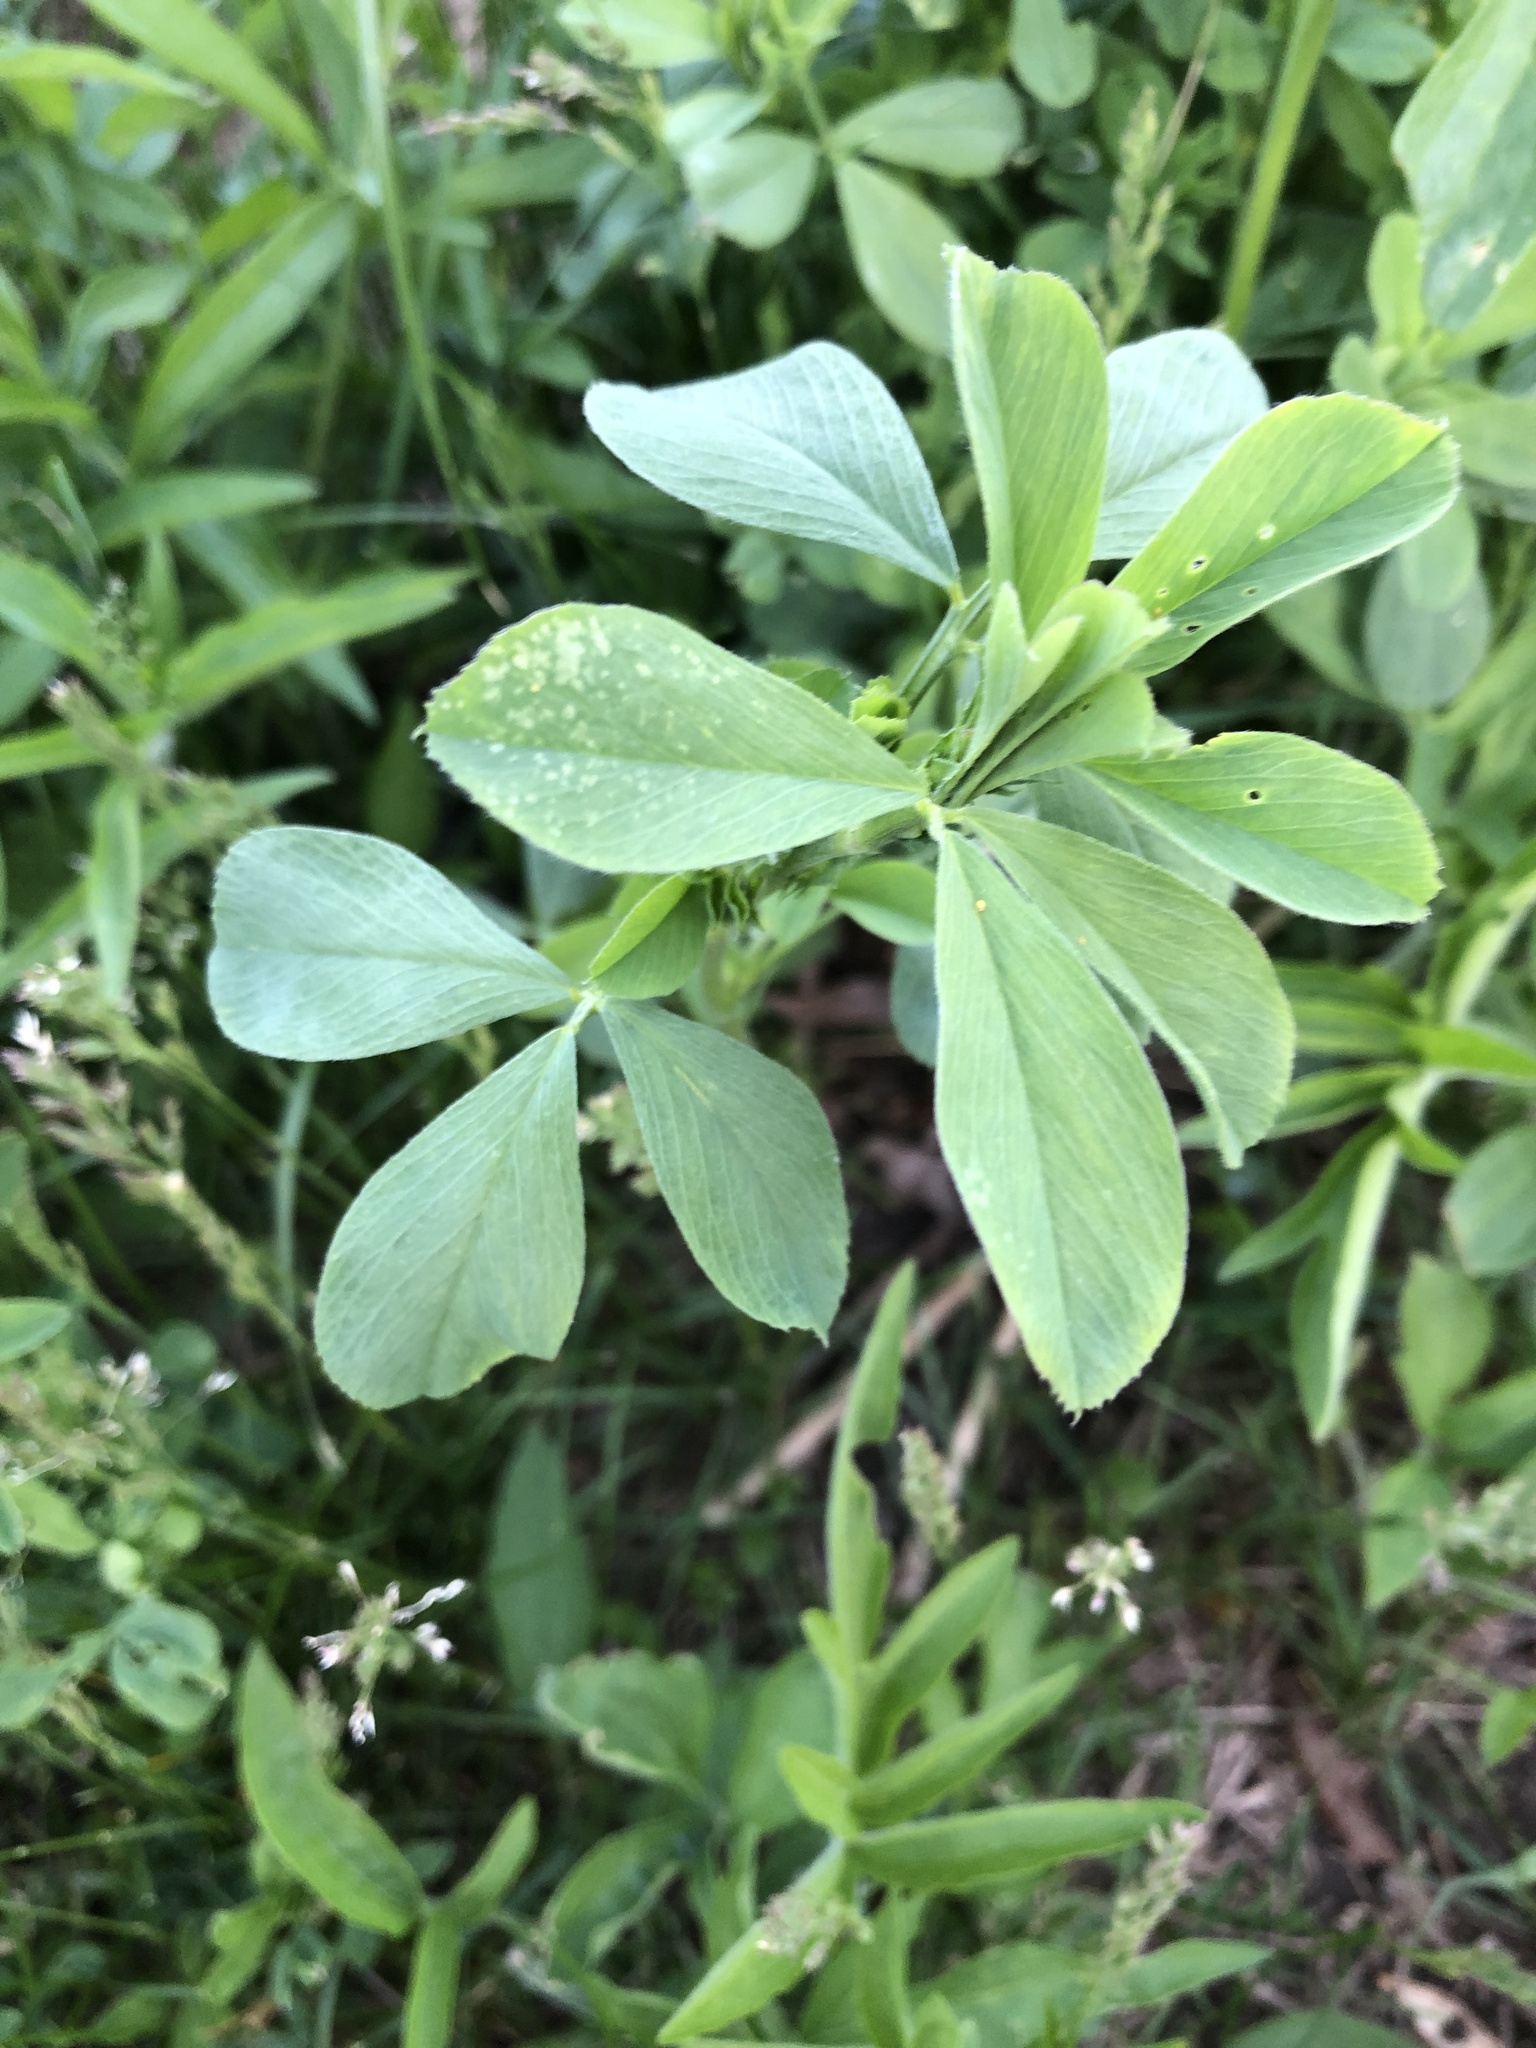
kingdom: Plantae
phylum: Tracheophyta
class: Magnoliopsida
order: Fabales
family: Fabaceae
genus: Medicago
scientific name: Medicago sativa
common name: Alfalfa
